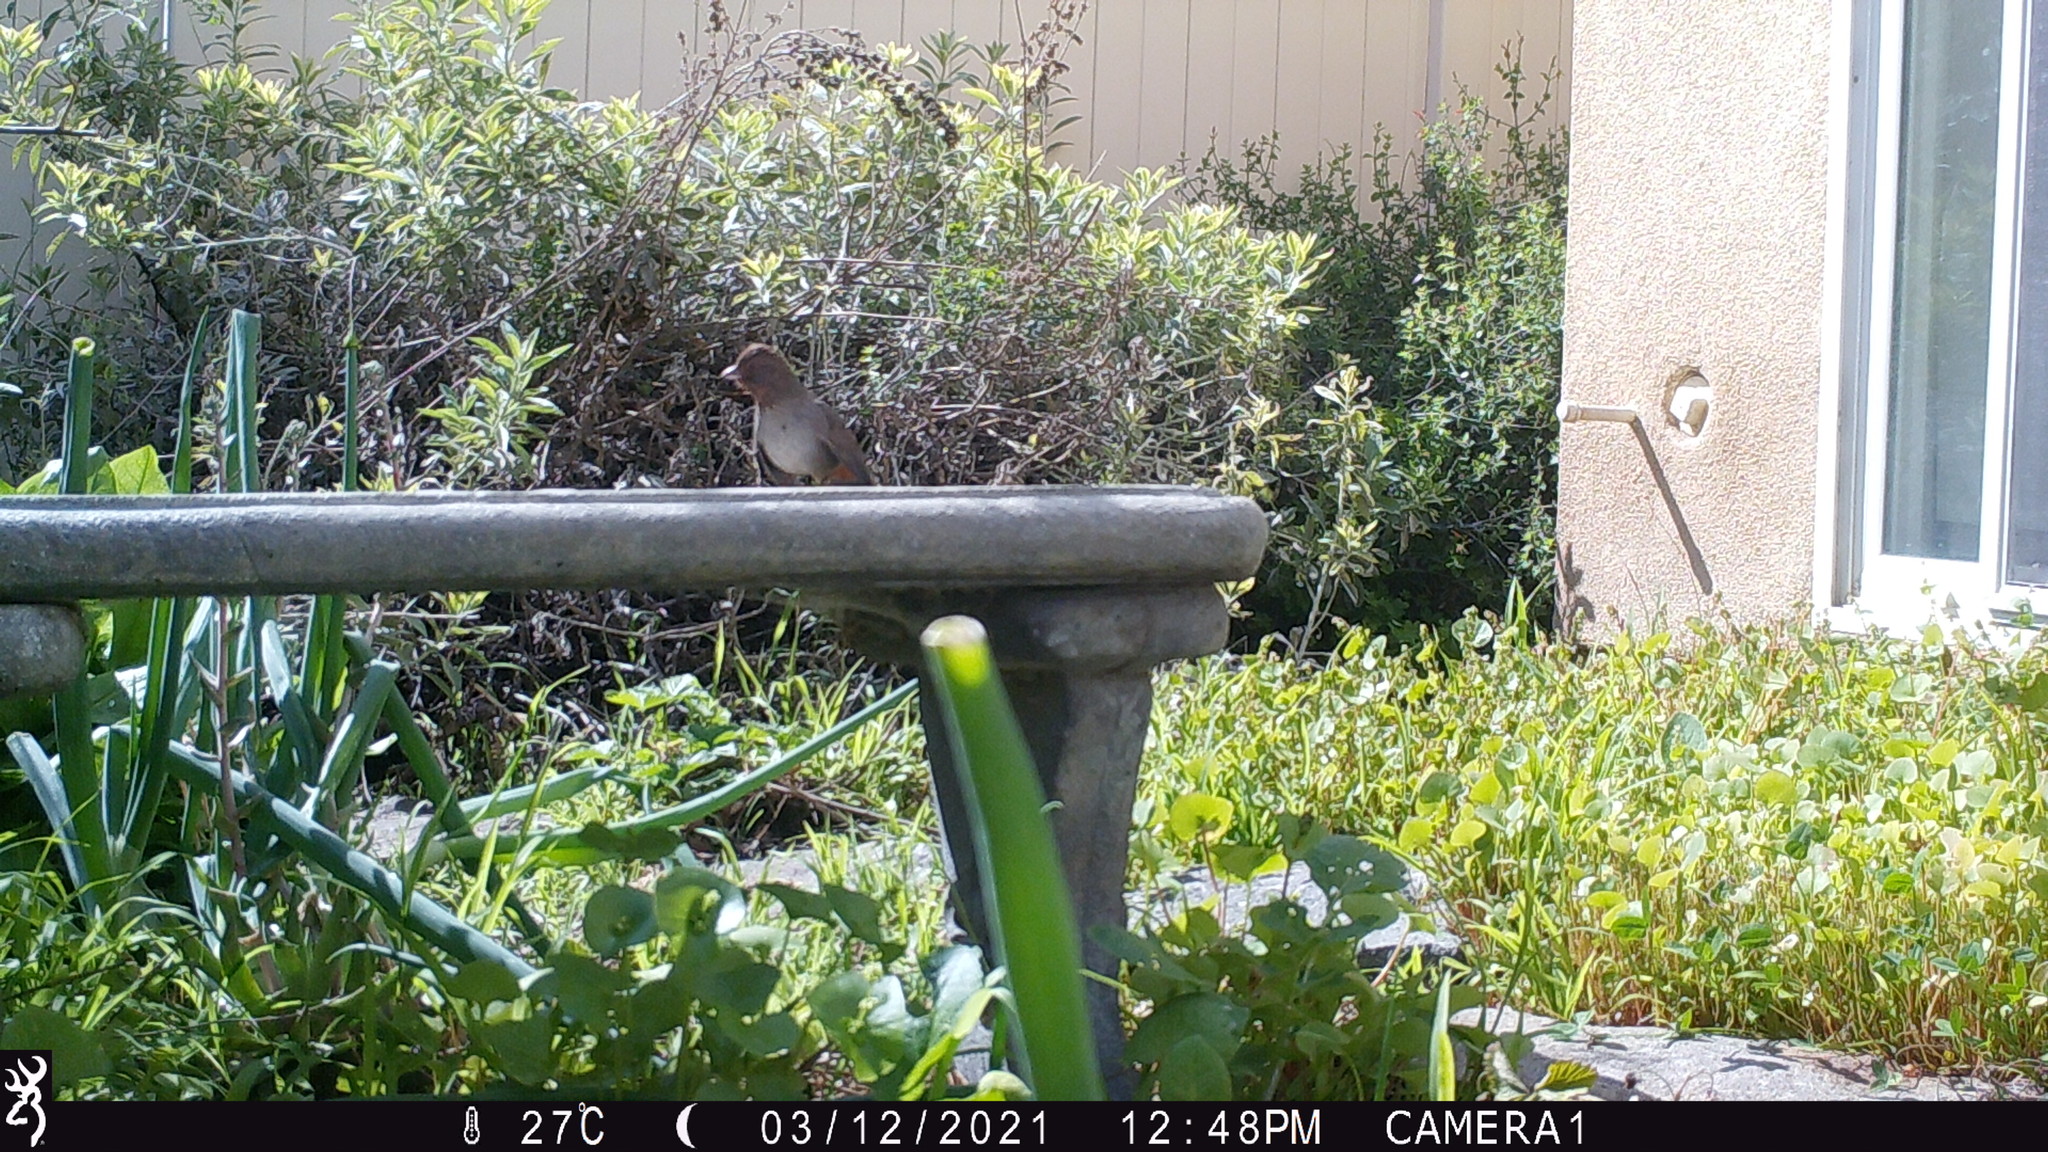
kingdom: Animalia
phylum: Chordata
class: Aves
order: Passeriformes
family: Passerellidae
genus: Melozone
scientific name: Melozone crissalis
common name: California towhee
